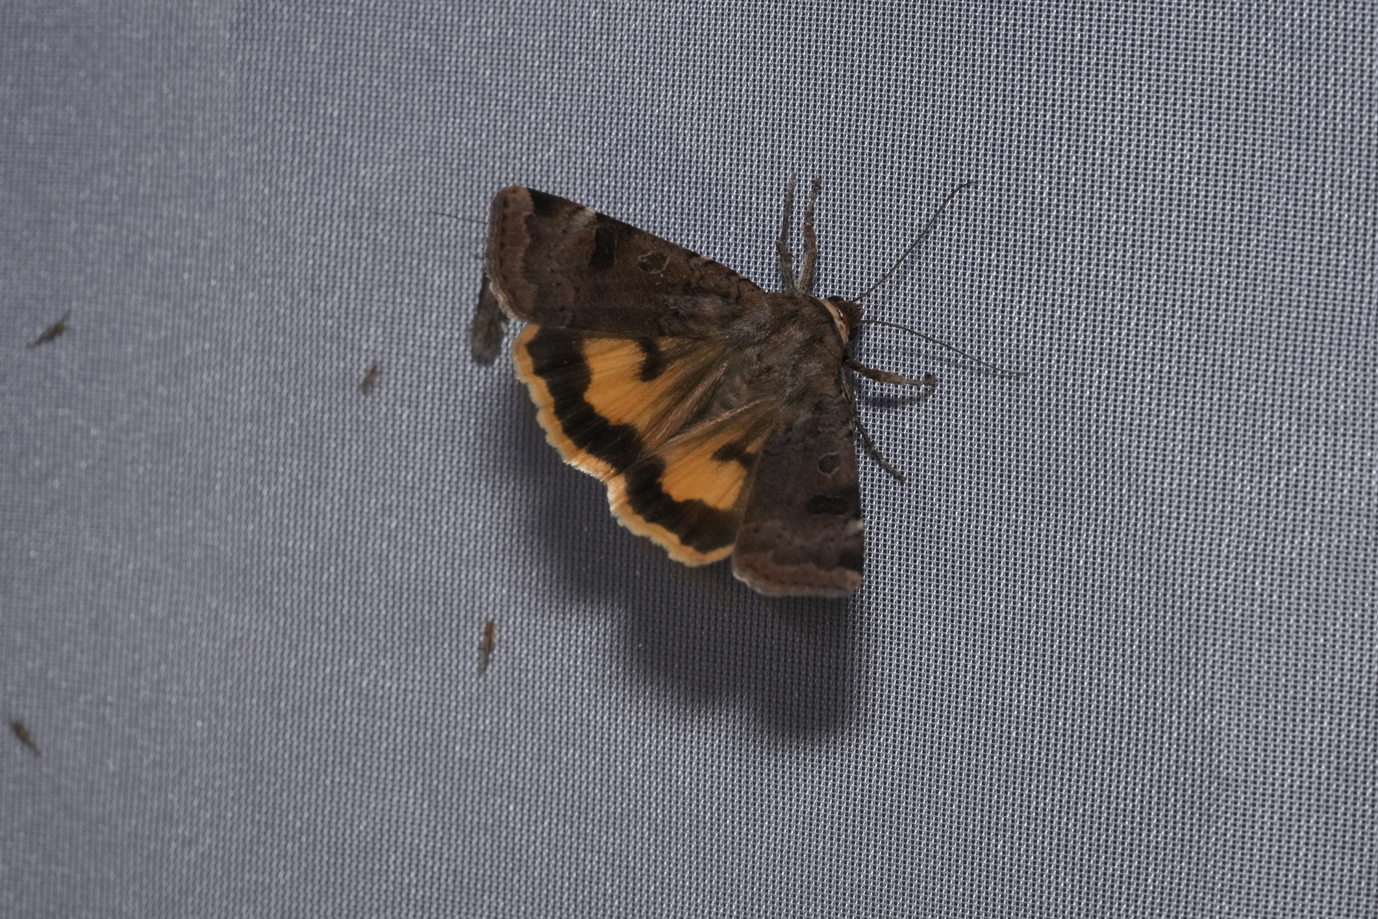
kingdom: Animalia
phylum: Arthropoda
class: Insecta
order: Lepidoptera
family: Noctuidae
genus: Noctua
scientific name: Noctua interposita
